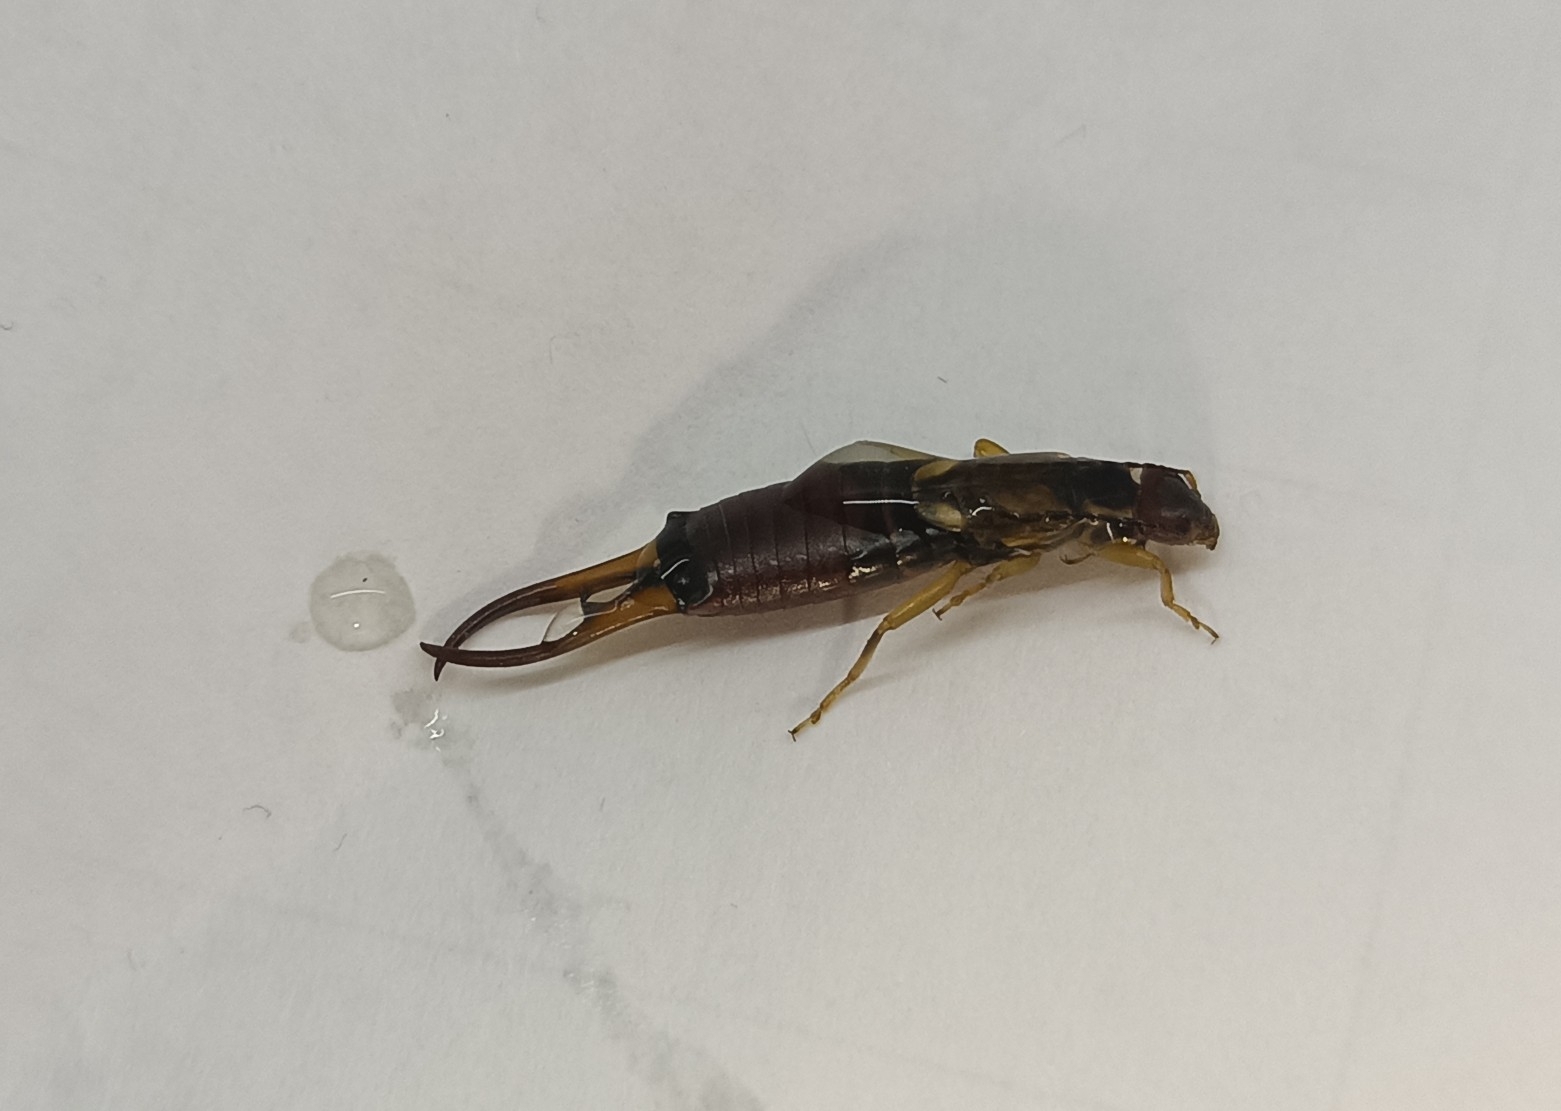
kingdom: Animalia
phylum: Arthropoda
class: Insecta
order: Dermaptera
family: Forficulidae
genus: Forficula
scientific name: Forficula auricularia
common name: European earwig
